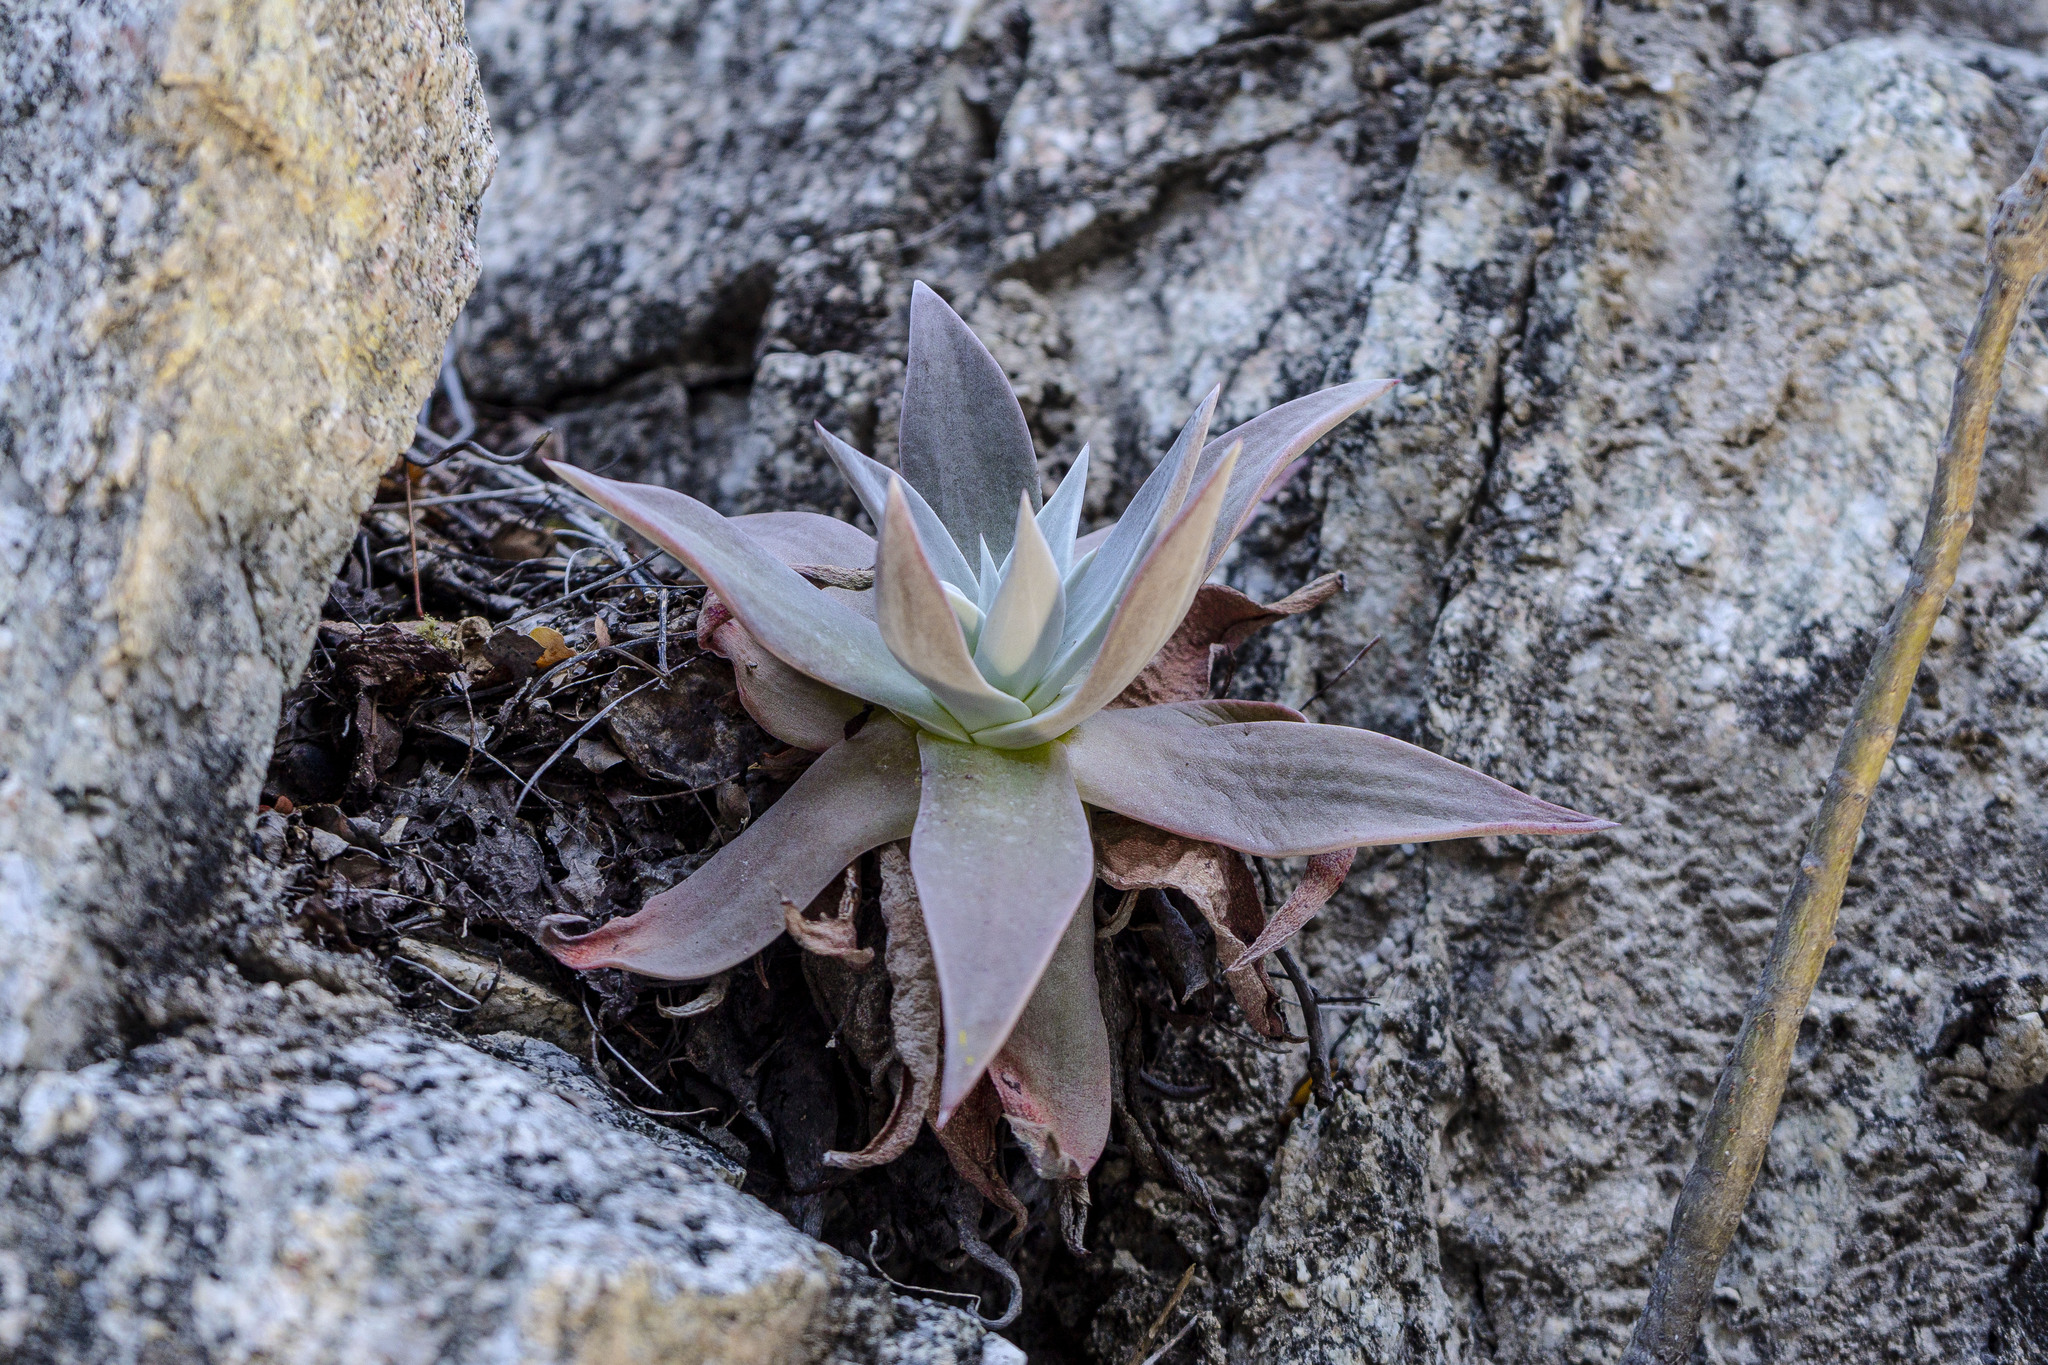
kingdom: Plantae
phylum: Tracheophyta
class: Magnoliopsida
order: Saxifragales
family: Crassulaceae
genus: Dudleya
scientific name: Dudleya nubigena
